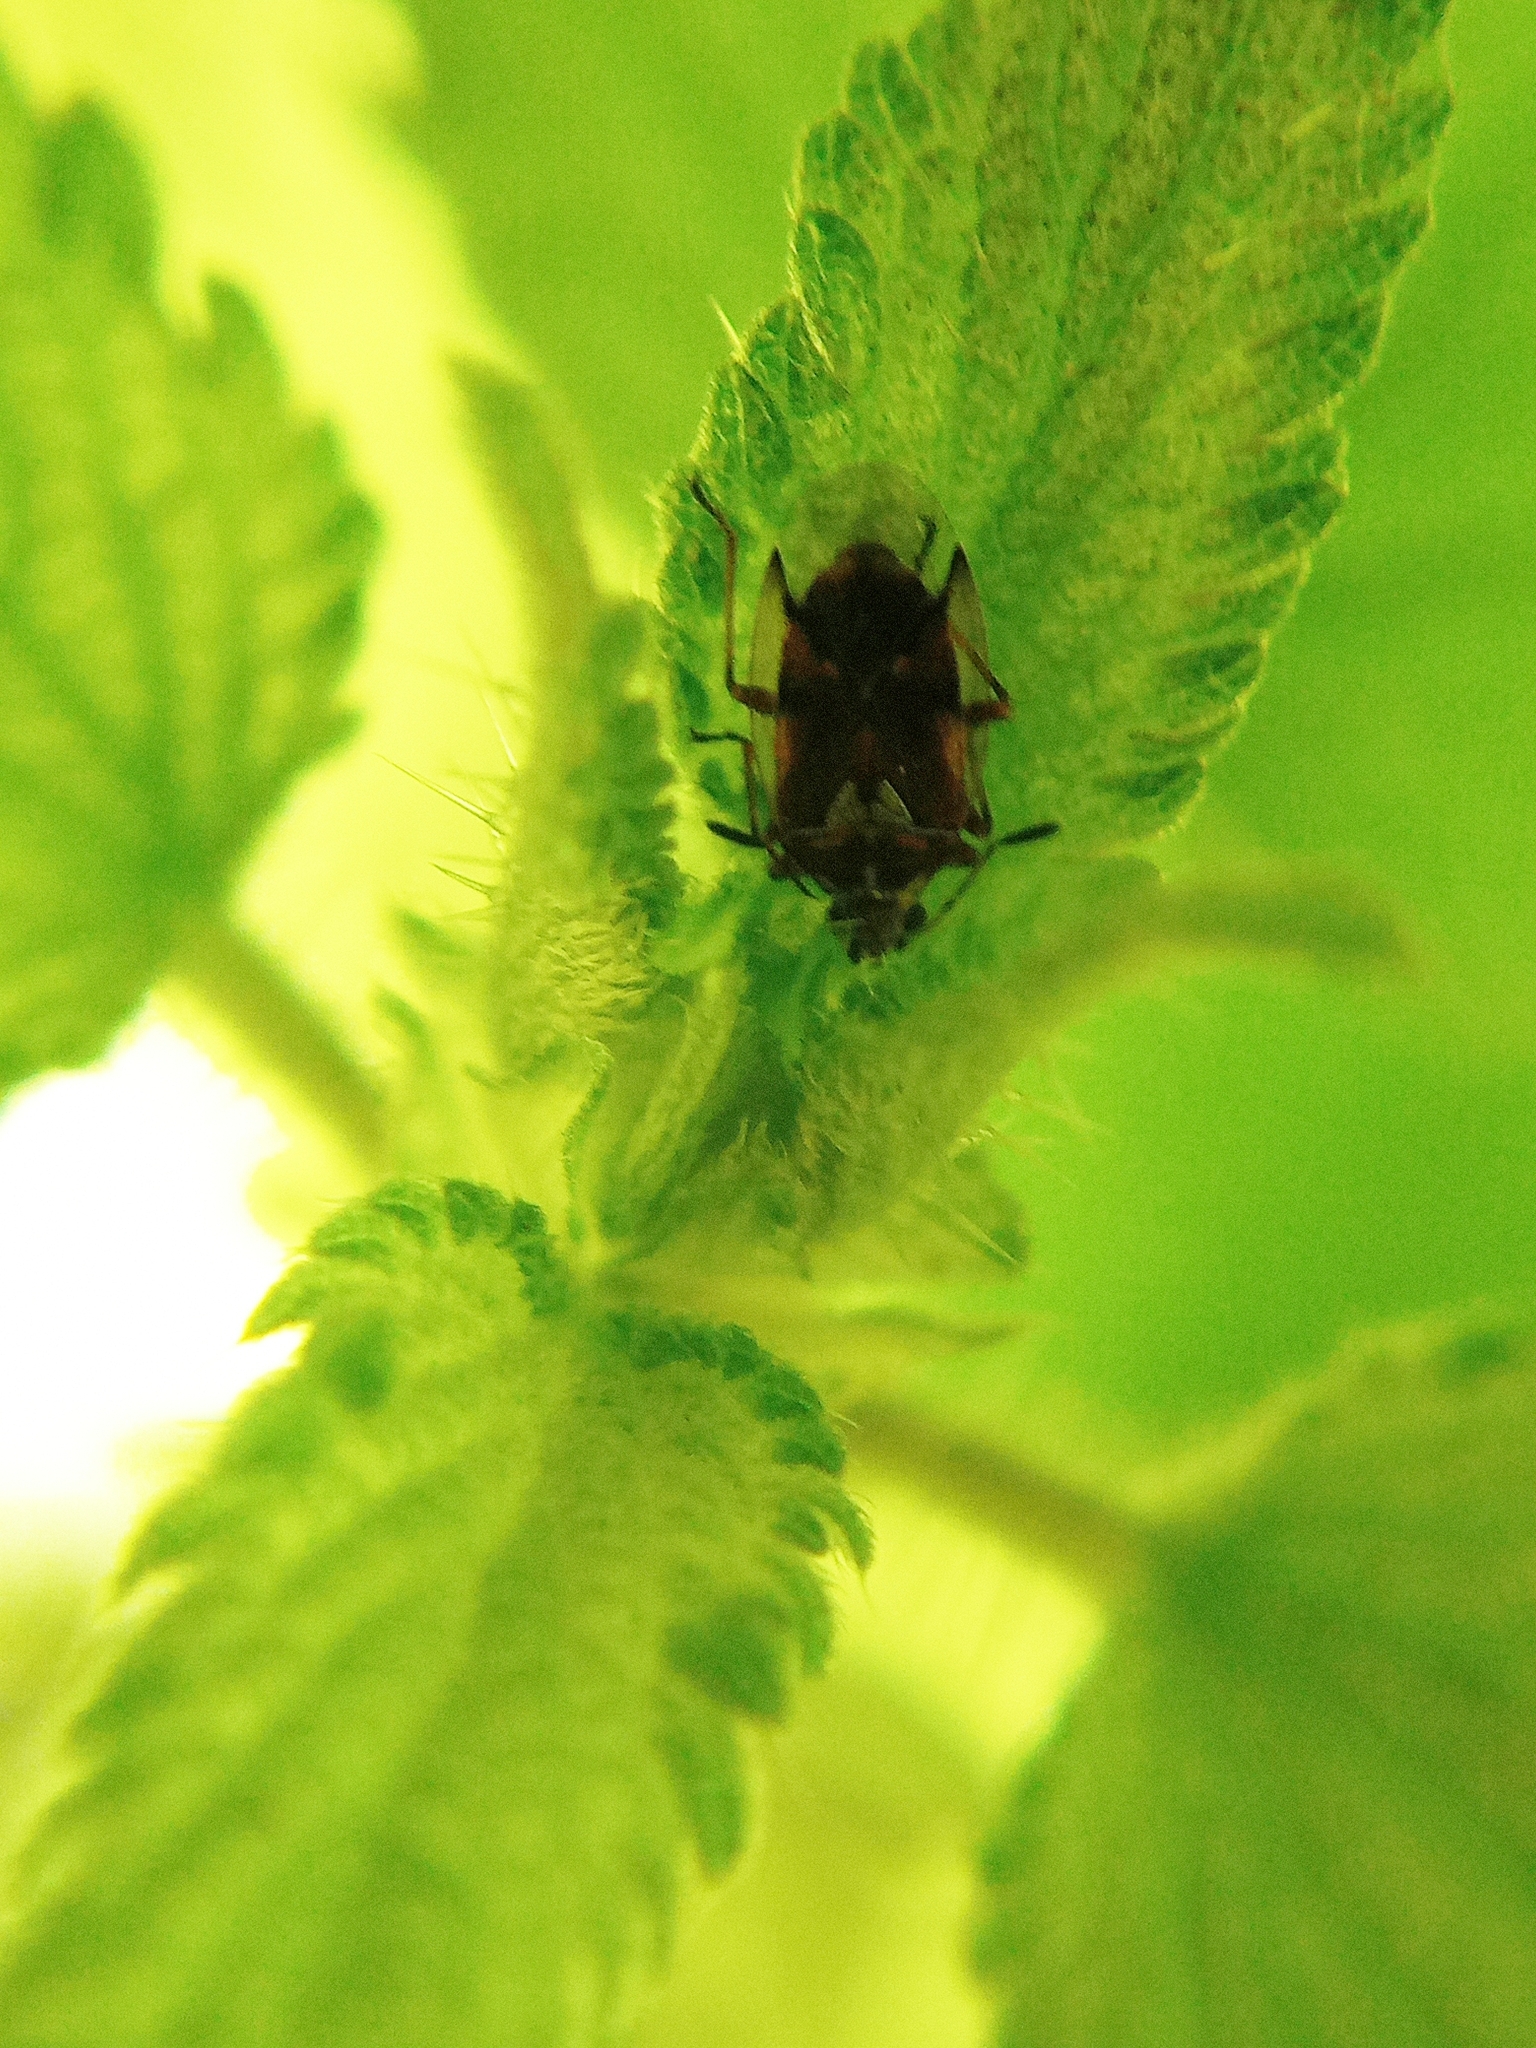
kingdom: Animalia
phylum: Arthropoda
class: Insecta
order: Hemiptera
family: Lygaeidae
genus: Kleidocerys
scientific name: Kleidocerys ericae
